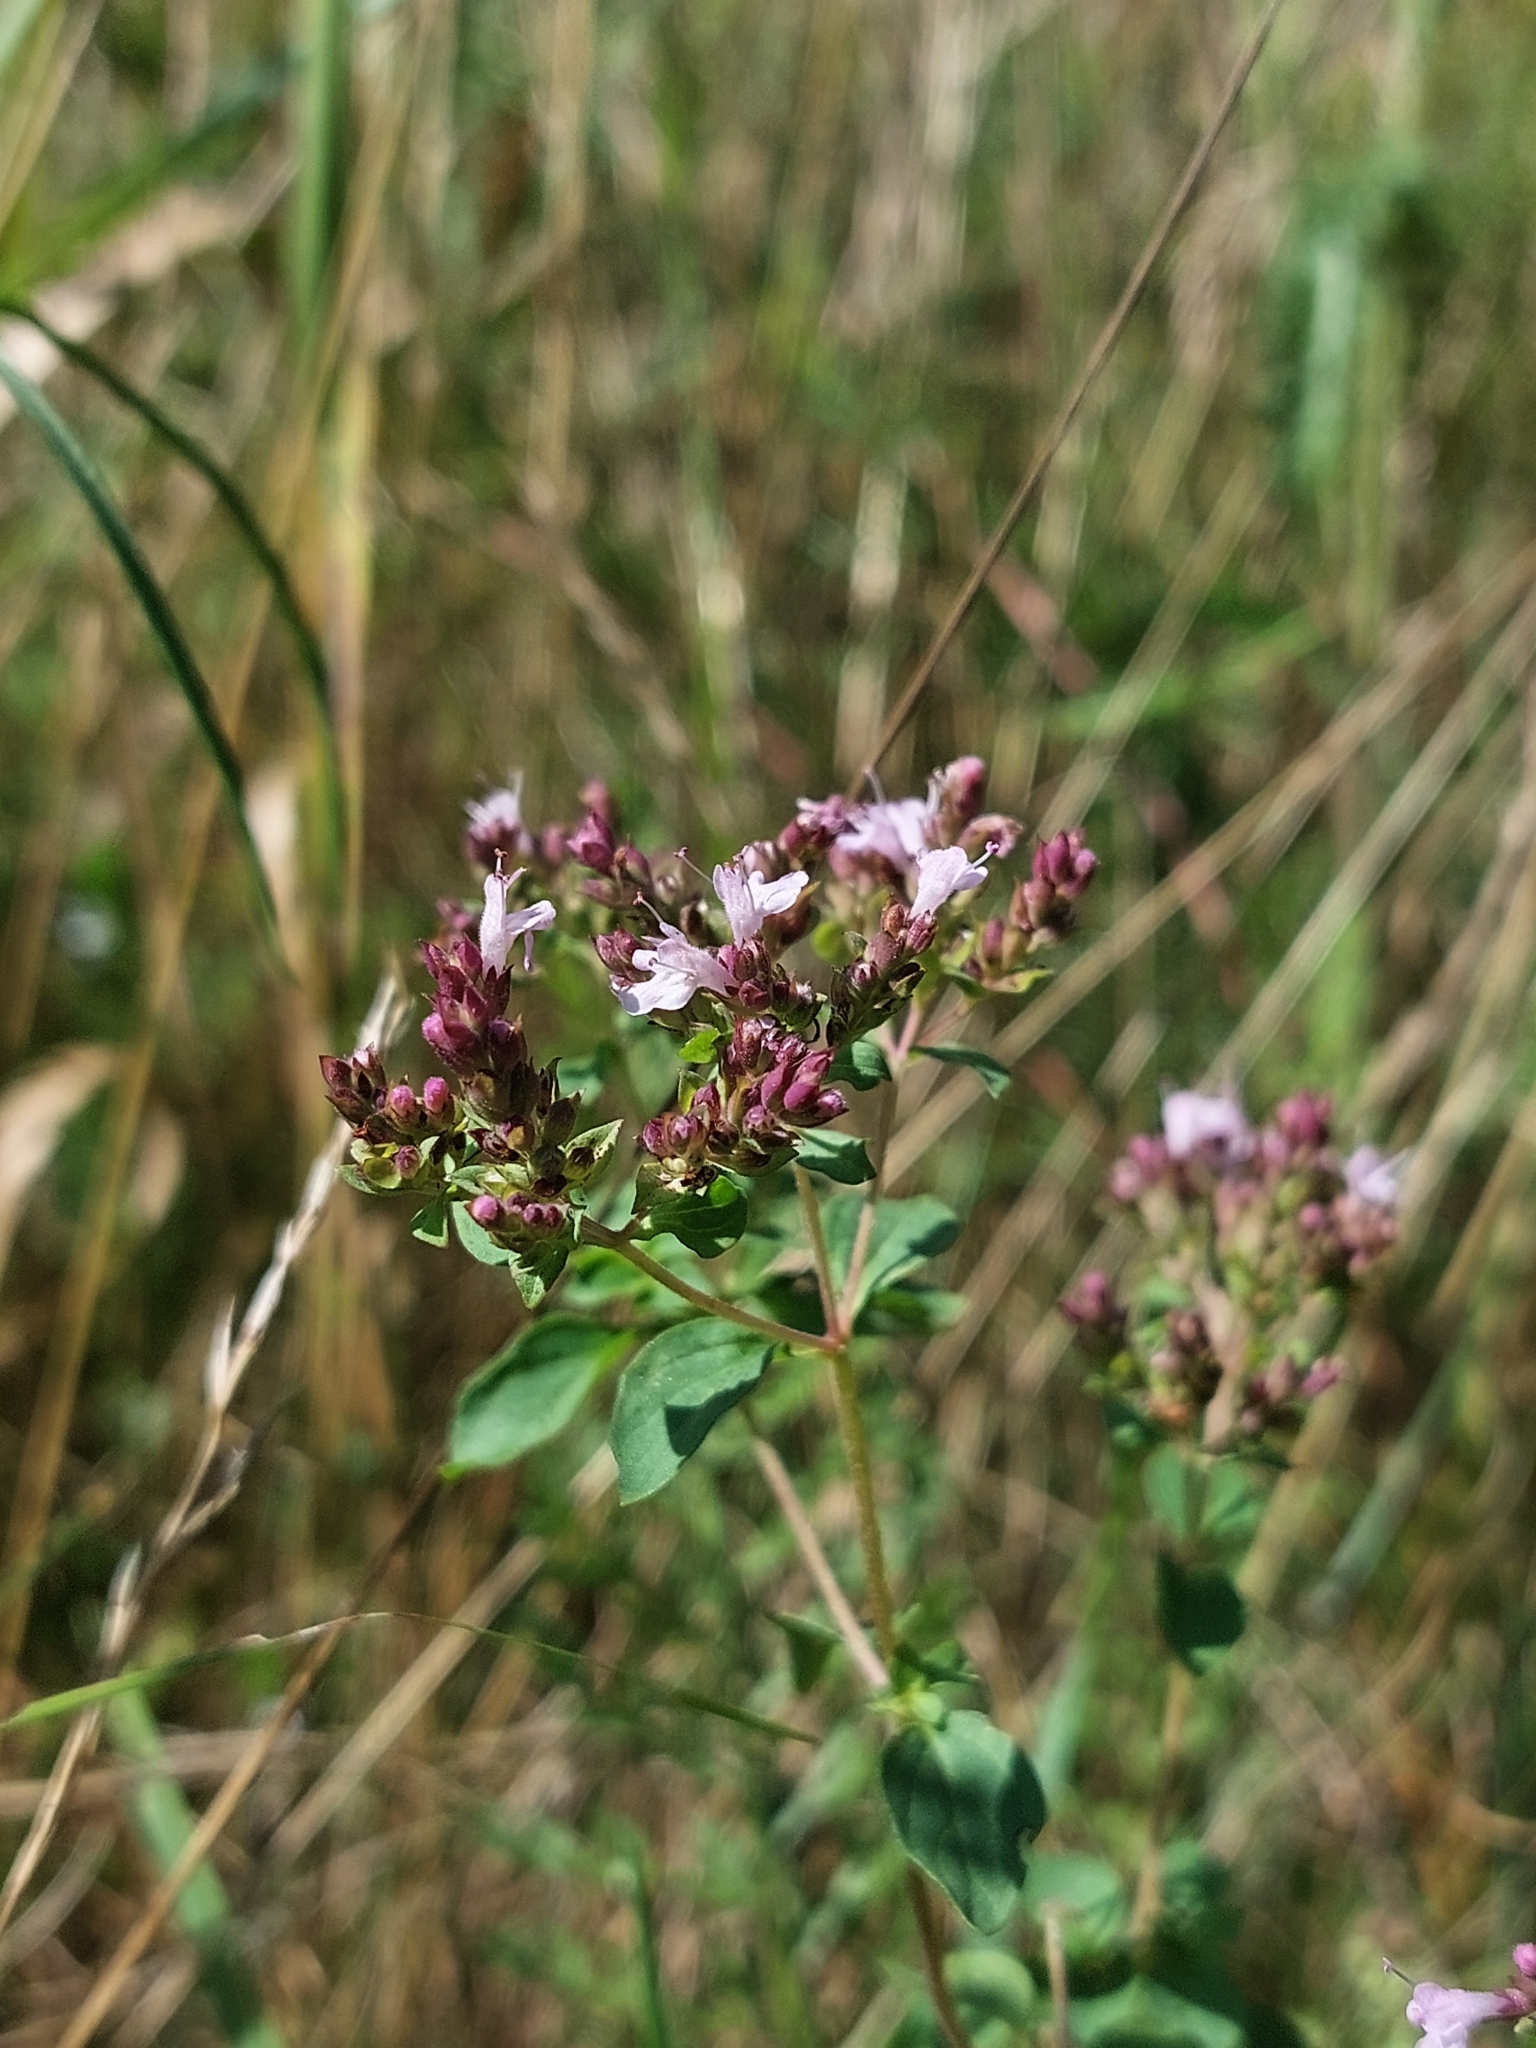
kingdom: Plantae
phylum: Tracheophyta
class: Magnoliopsida
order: Lamiales
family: Lamiaceae
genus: Origanum
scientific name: Origanum vulgare
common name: Wild marjoram
